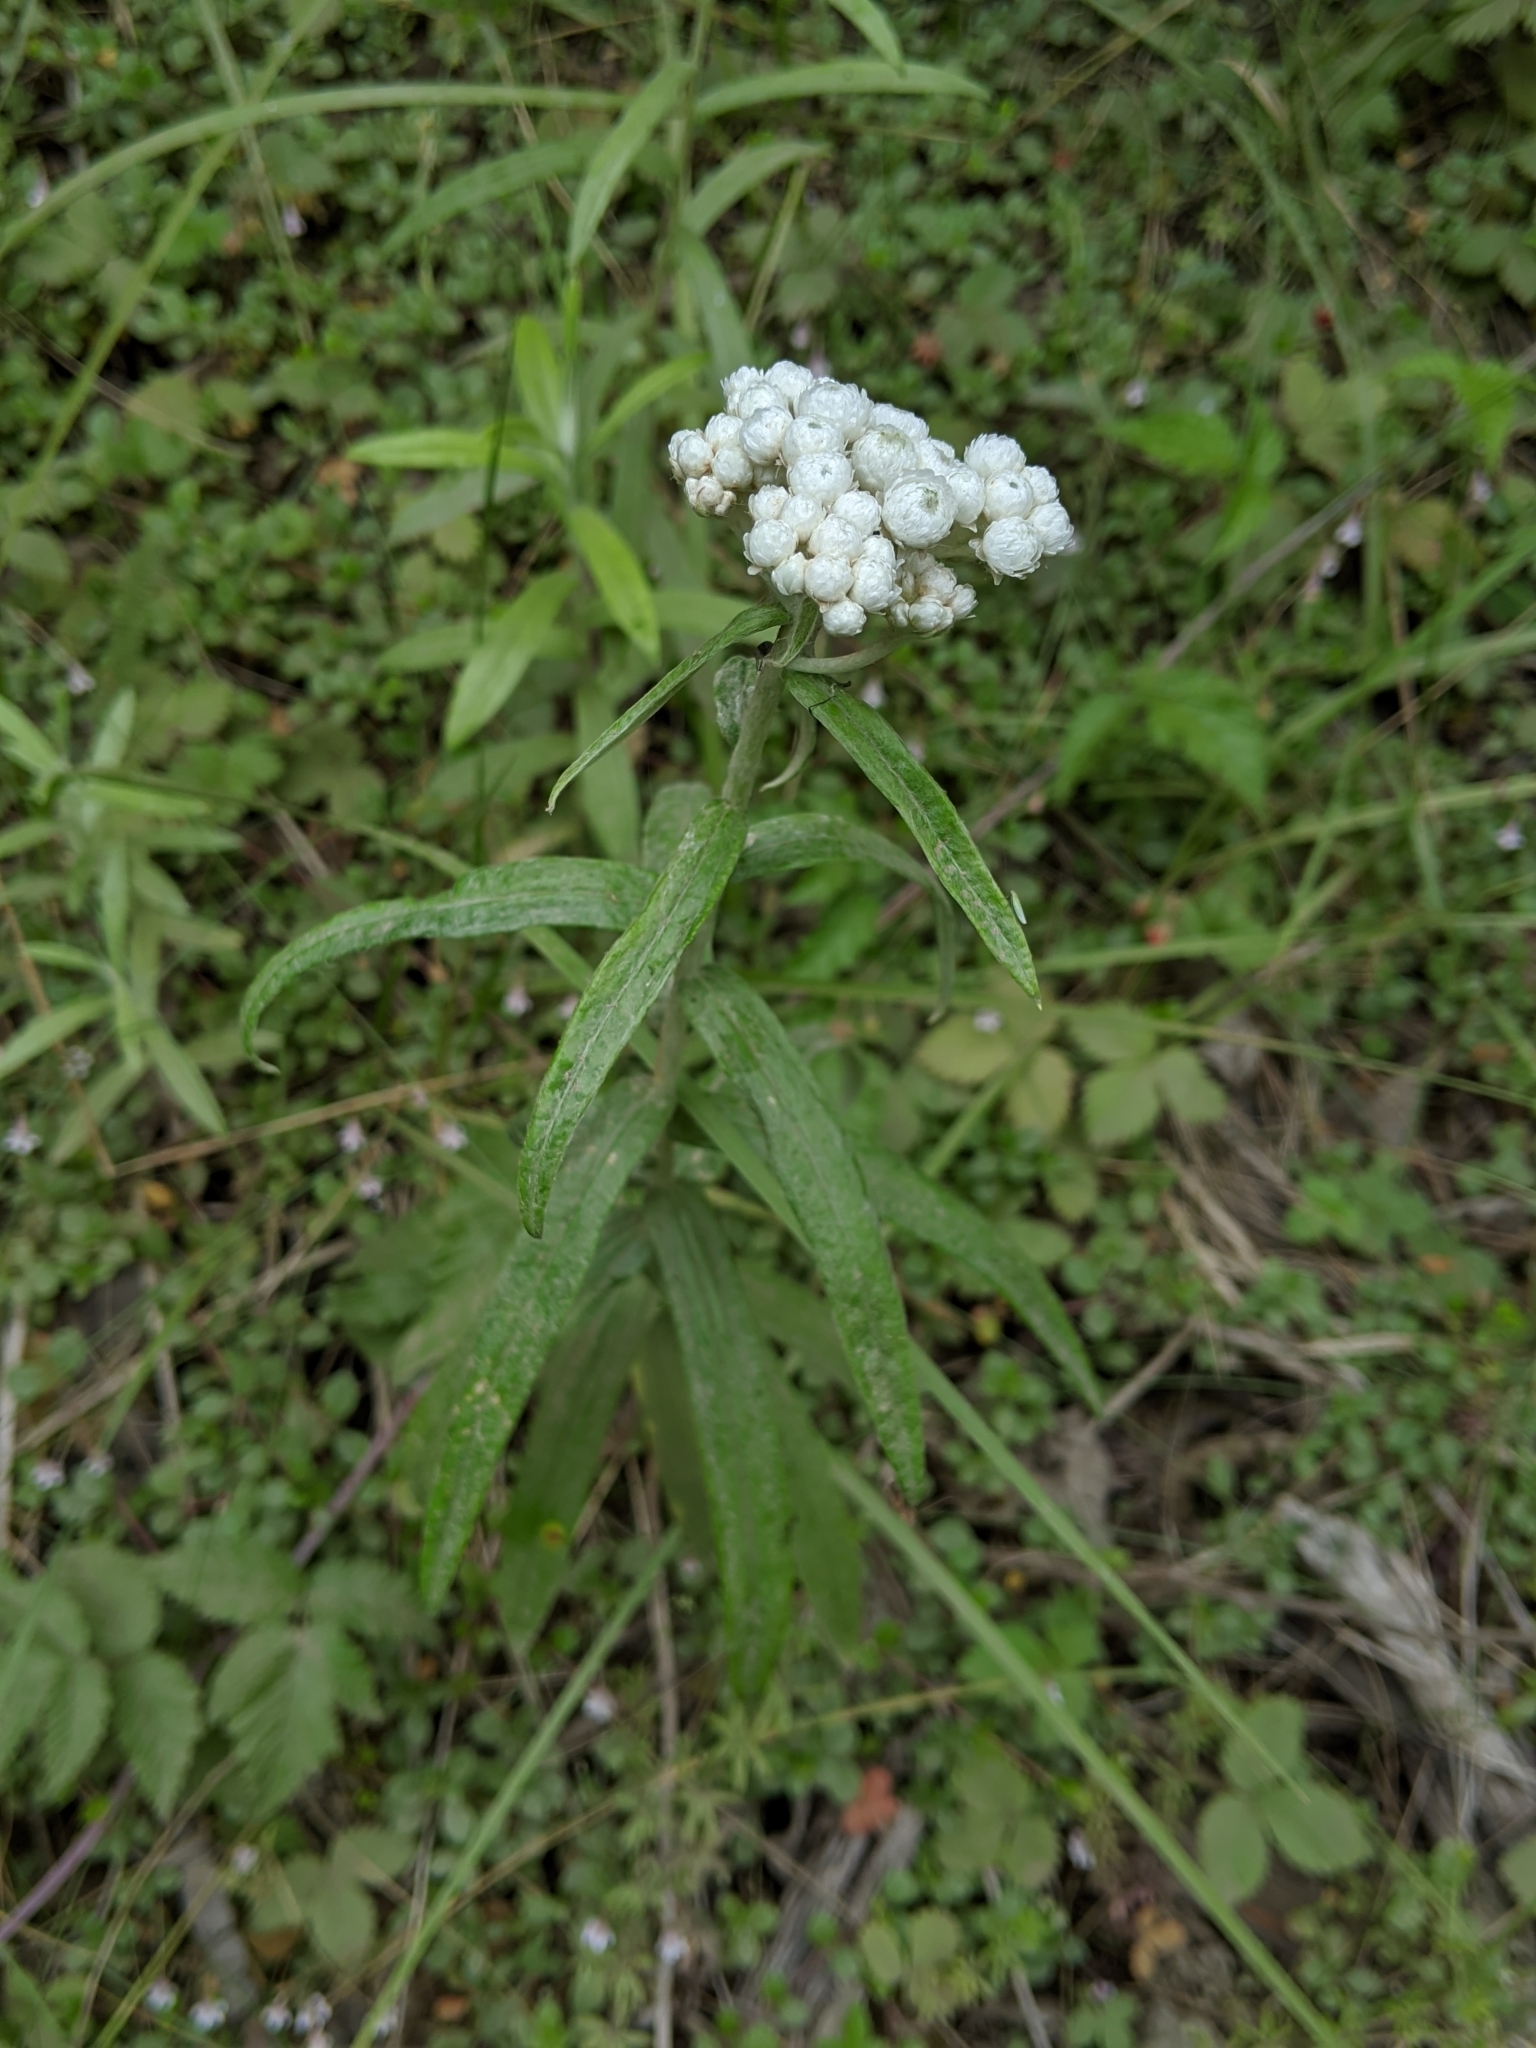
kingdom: Plantae
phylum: Tracheophyta
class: Magnoliopsida
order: Asterales
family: Asteraceae
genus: Anaphalis
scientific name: Anaphalis margaritacea
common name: Pearly everlasting
